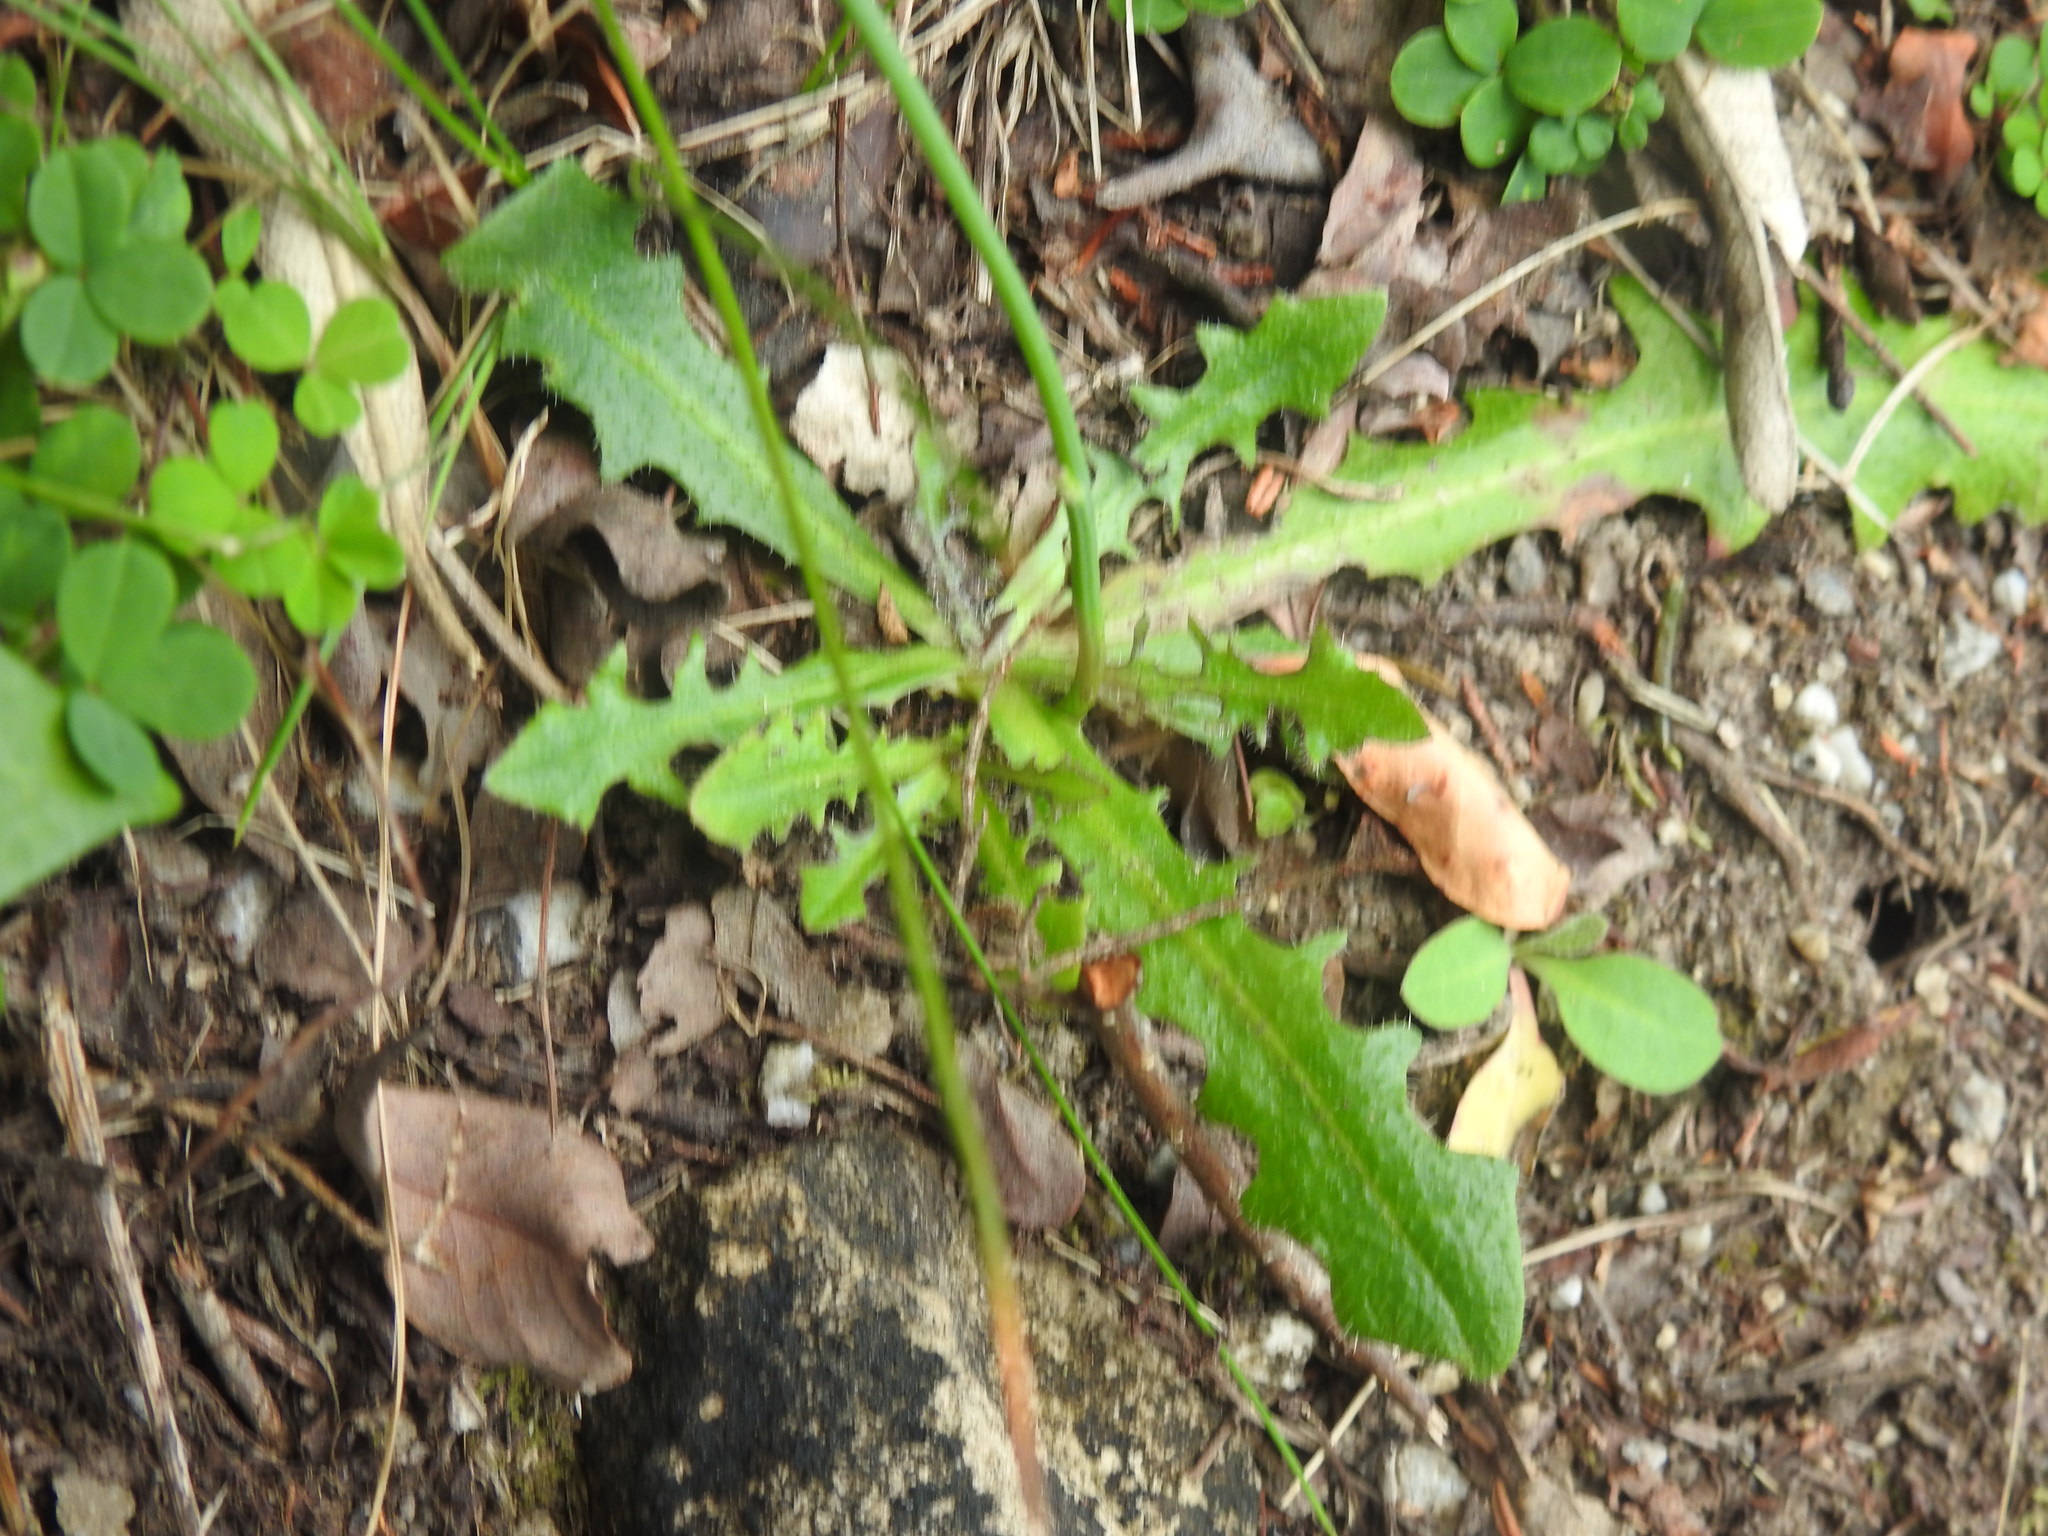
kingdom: Plantae
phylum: Tracheophyta
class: Magnoliopsida
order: Asterales
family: Asteraceae
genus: Hypochaeris
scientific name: Hypochaeris radicata
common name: Flatweed
